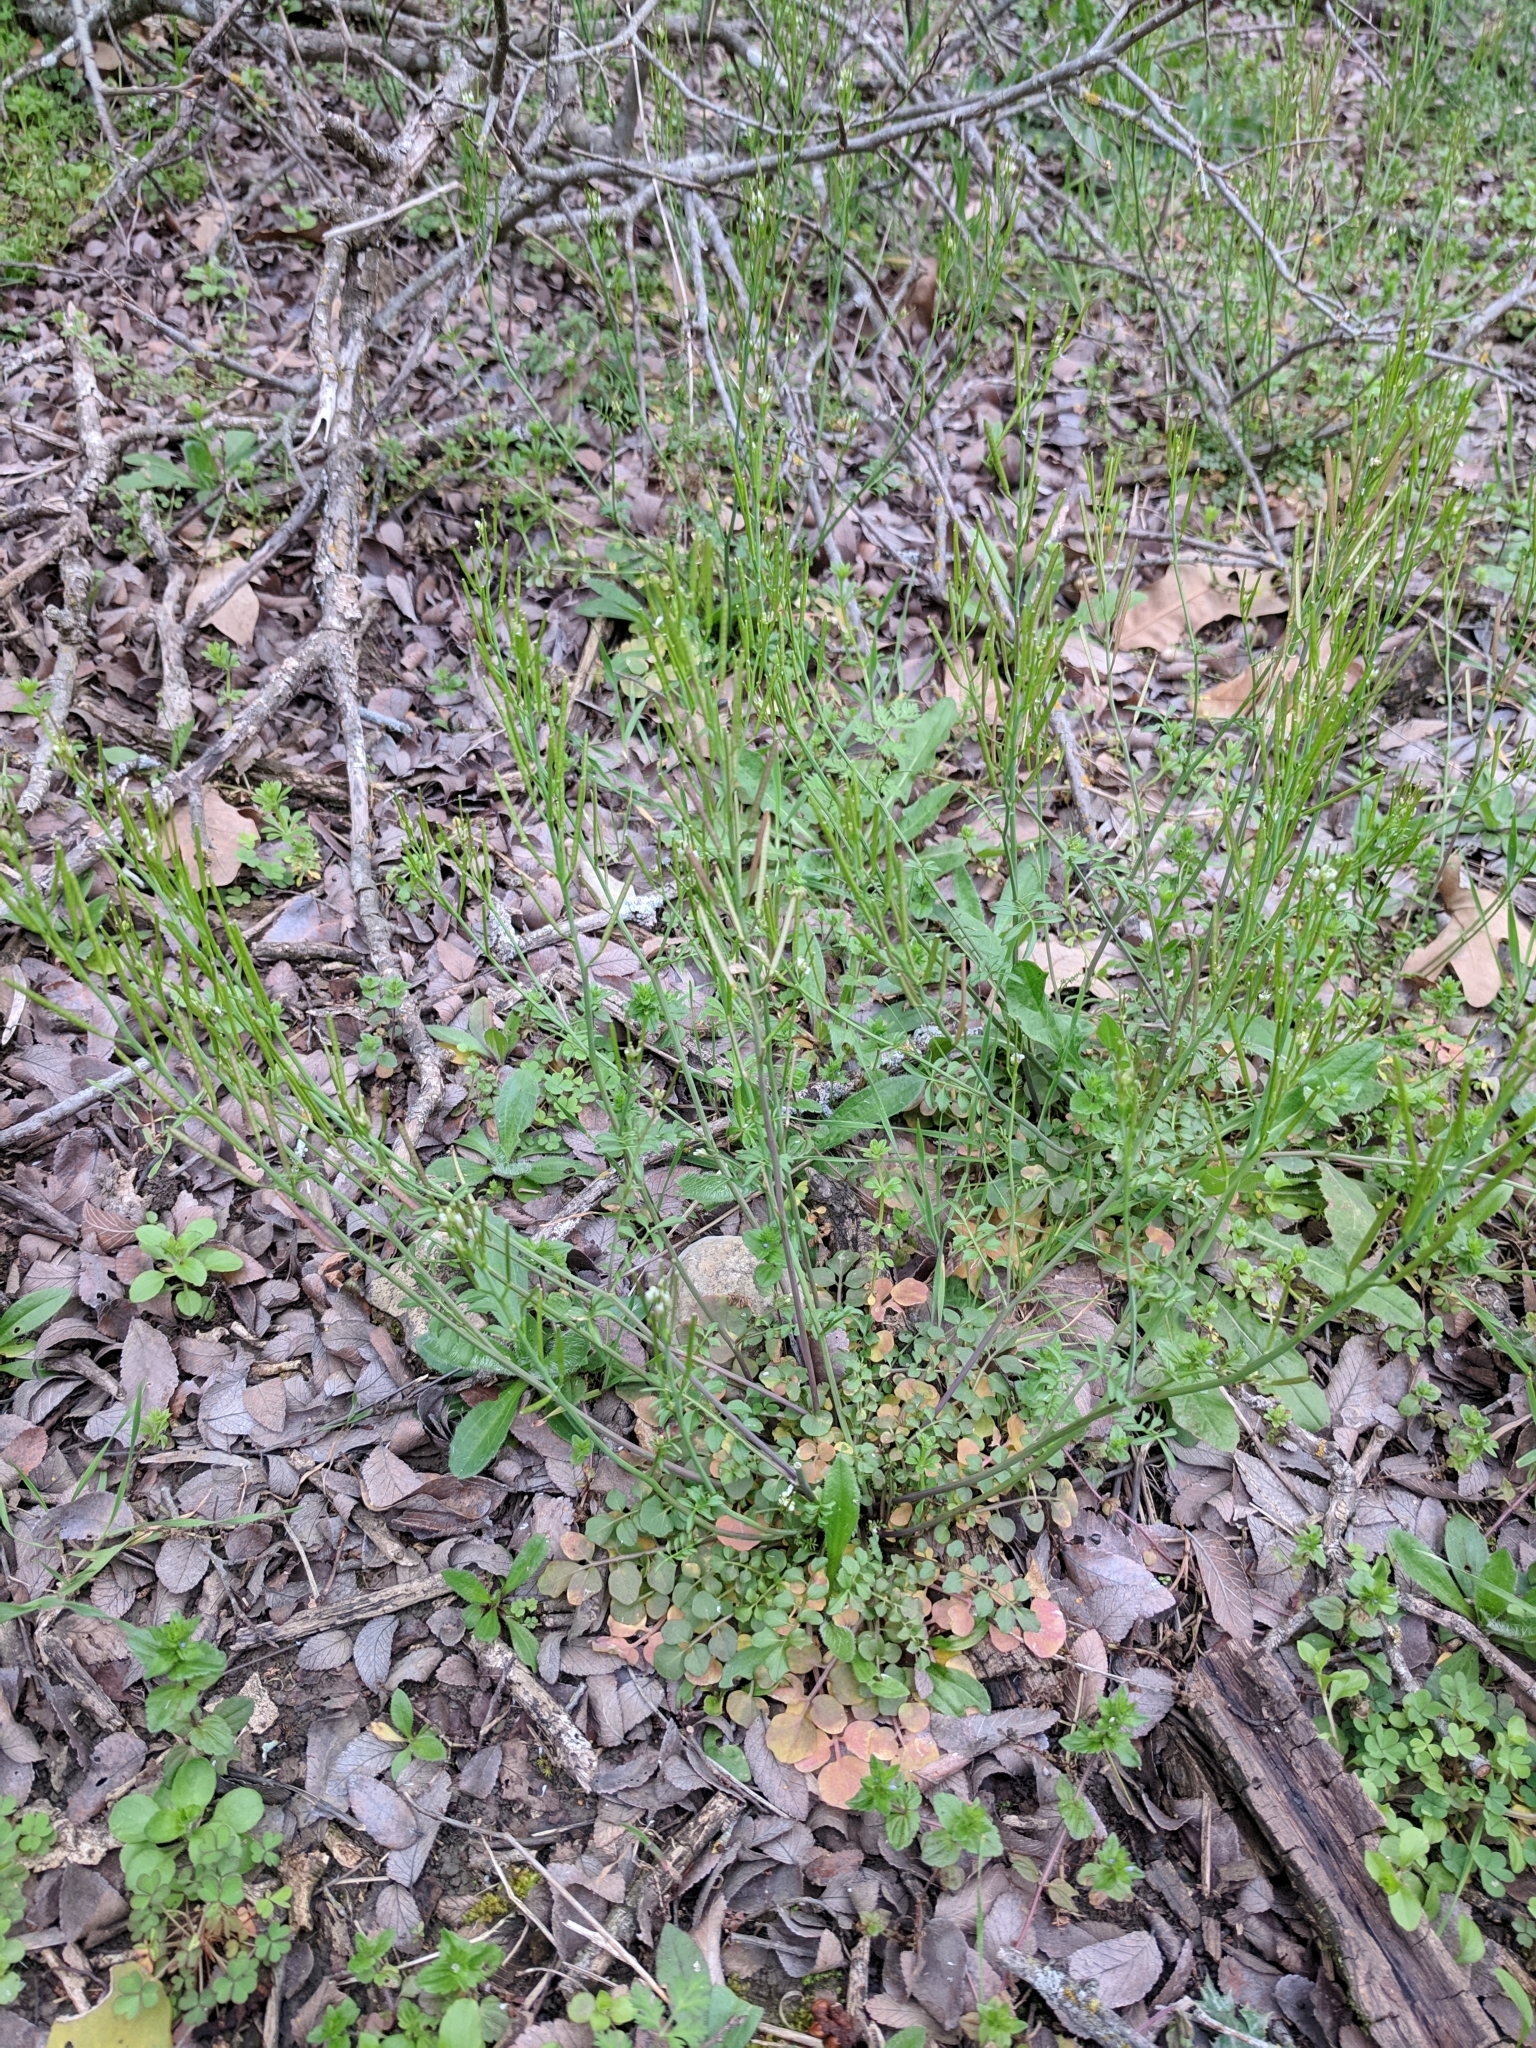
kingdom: Plantae
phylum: Tracheophyta
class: Magnoliopsida
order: Brassicales
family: Brassicaceae
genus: Cardamine
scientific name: Cardamine hirsuta
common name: Hairy bittercress
